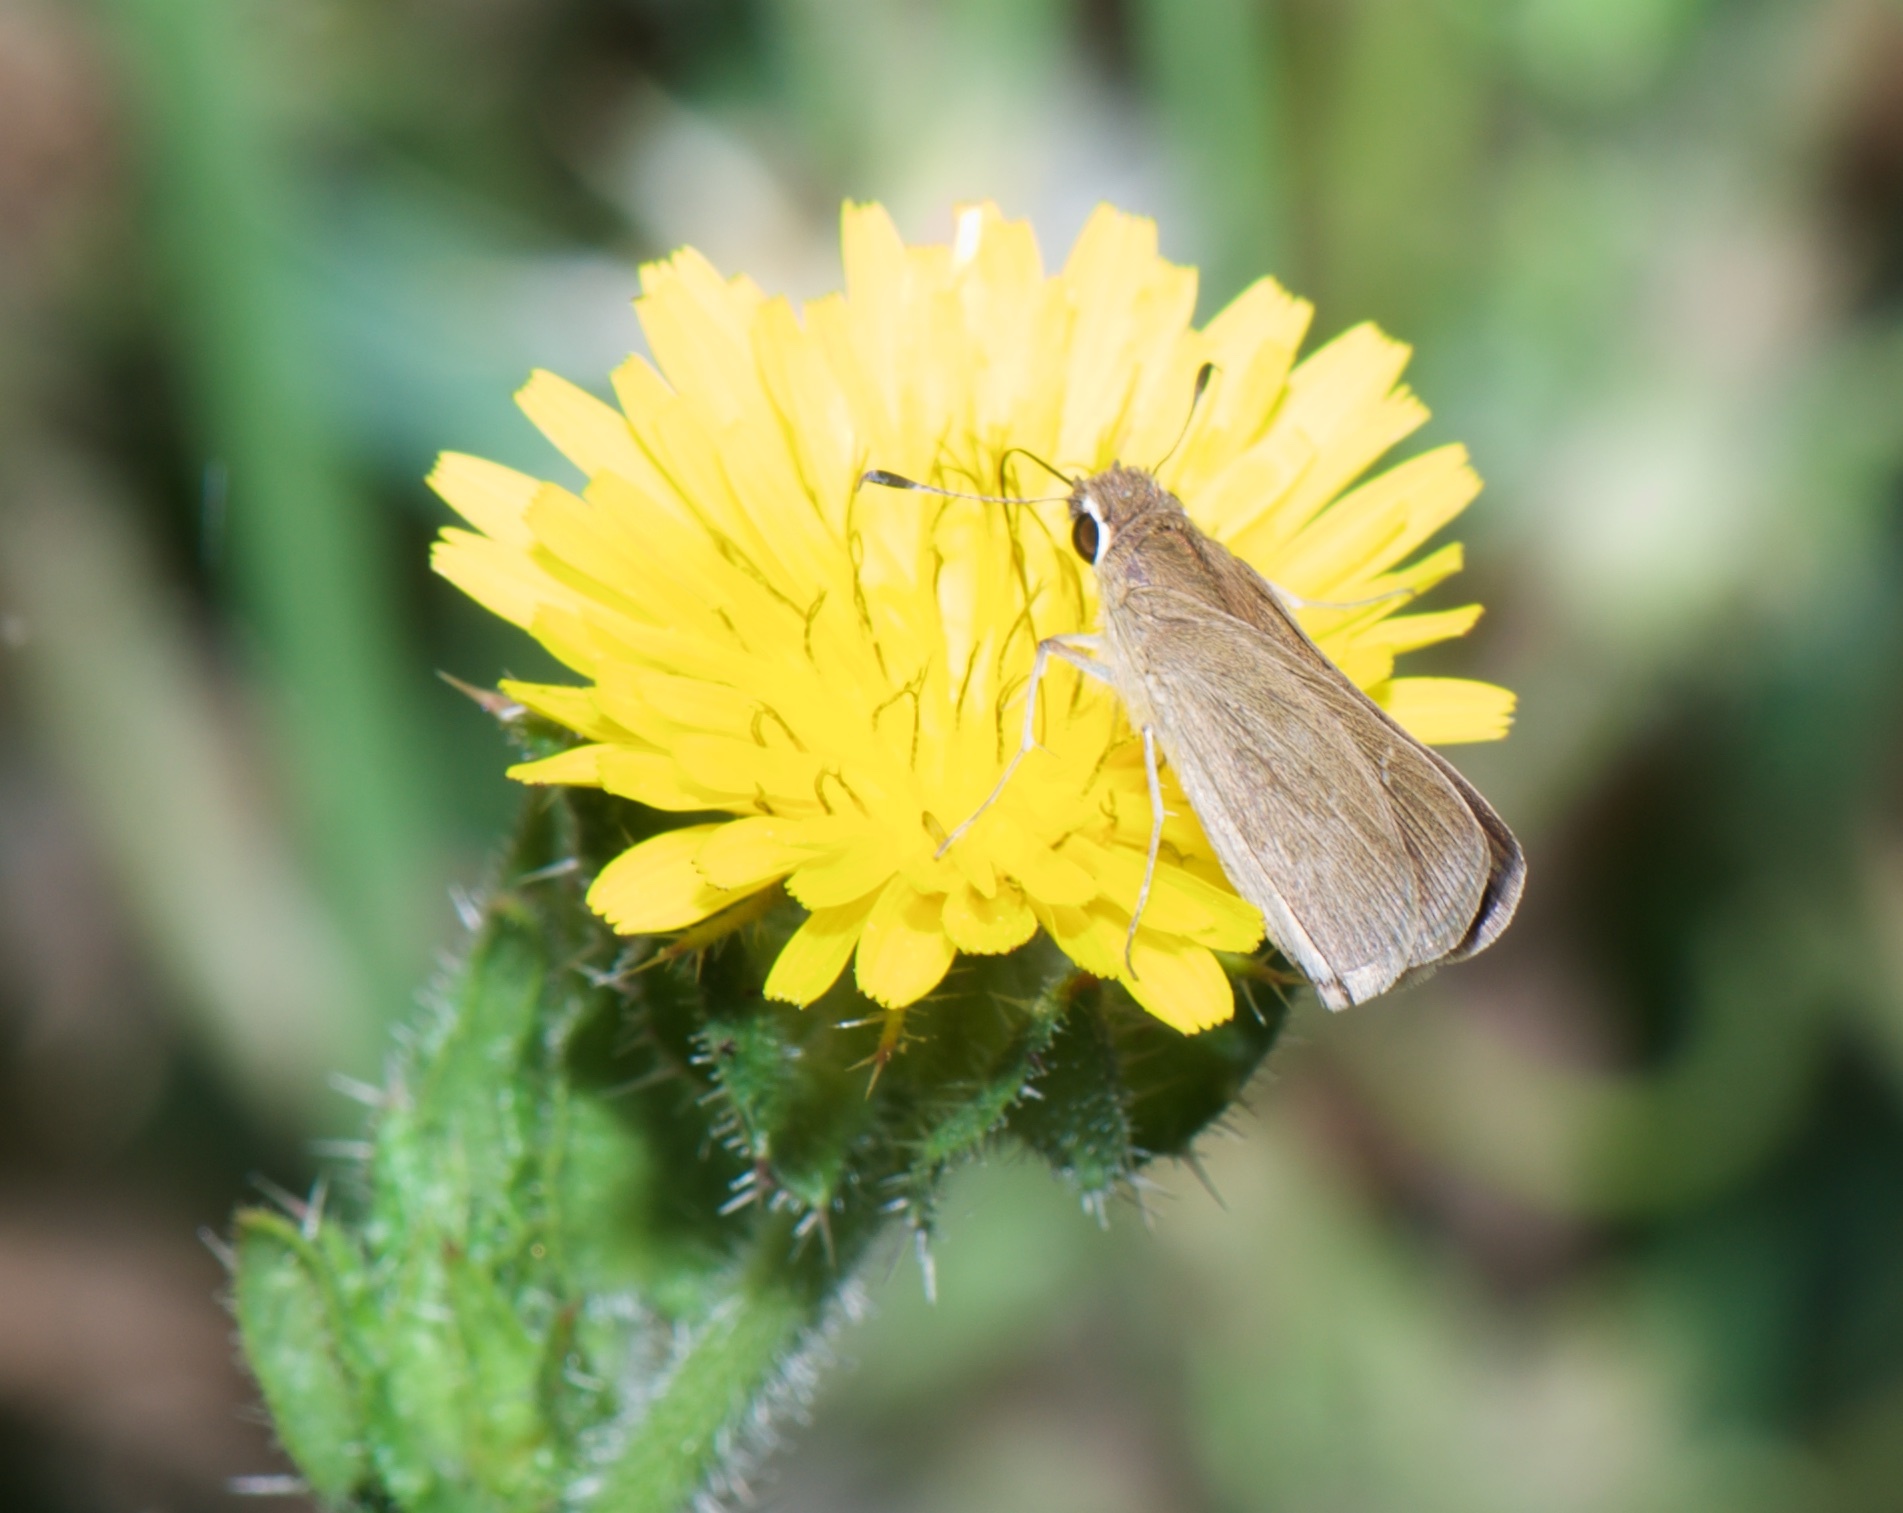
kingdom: Animalia
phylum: Arthropoda
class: Insecta
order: Lepidoptera
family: Hesperiidae
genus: Lerodea
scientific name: Lerodea eufala
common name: Eufala skipper
